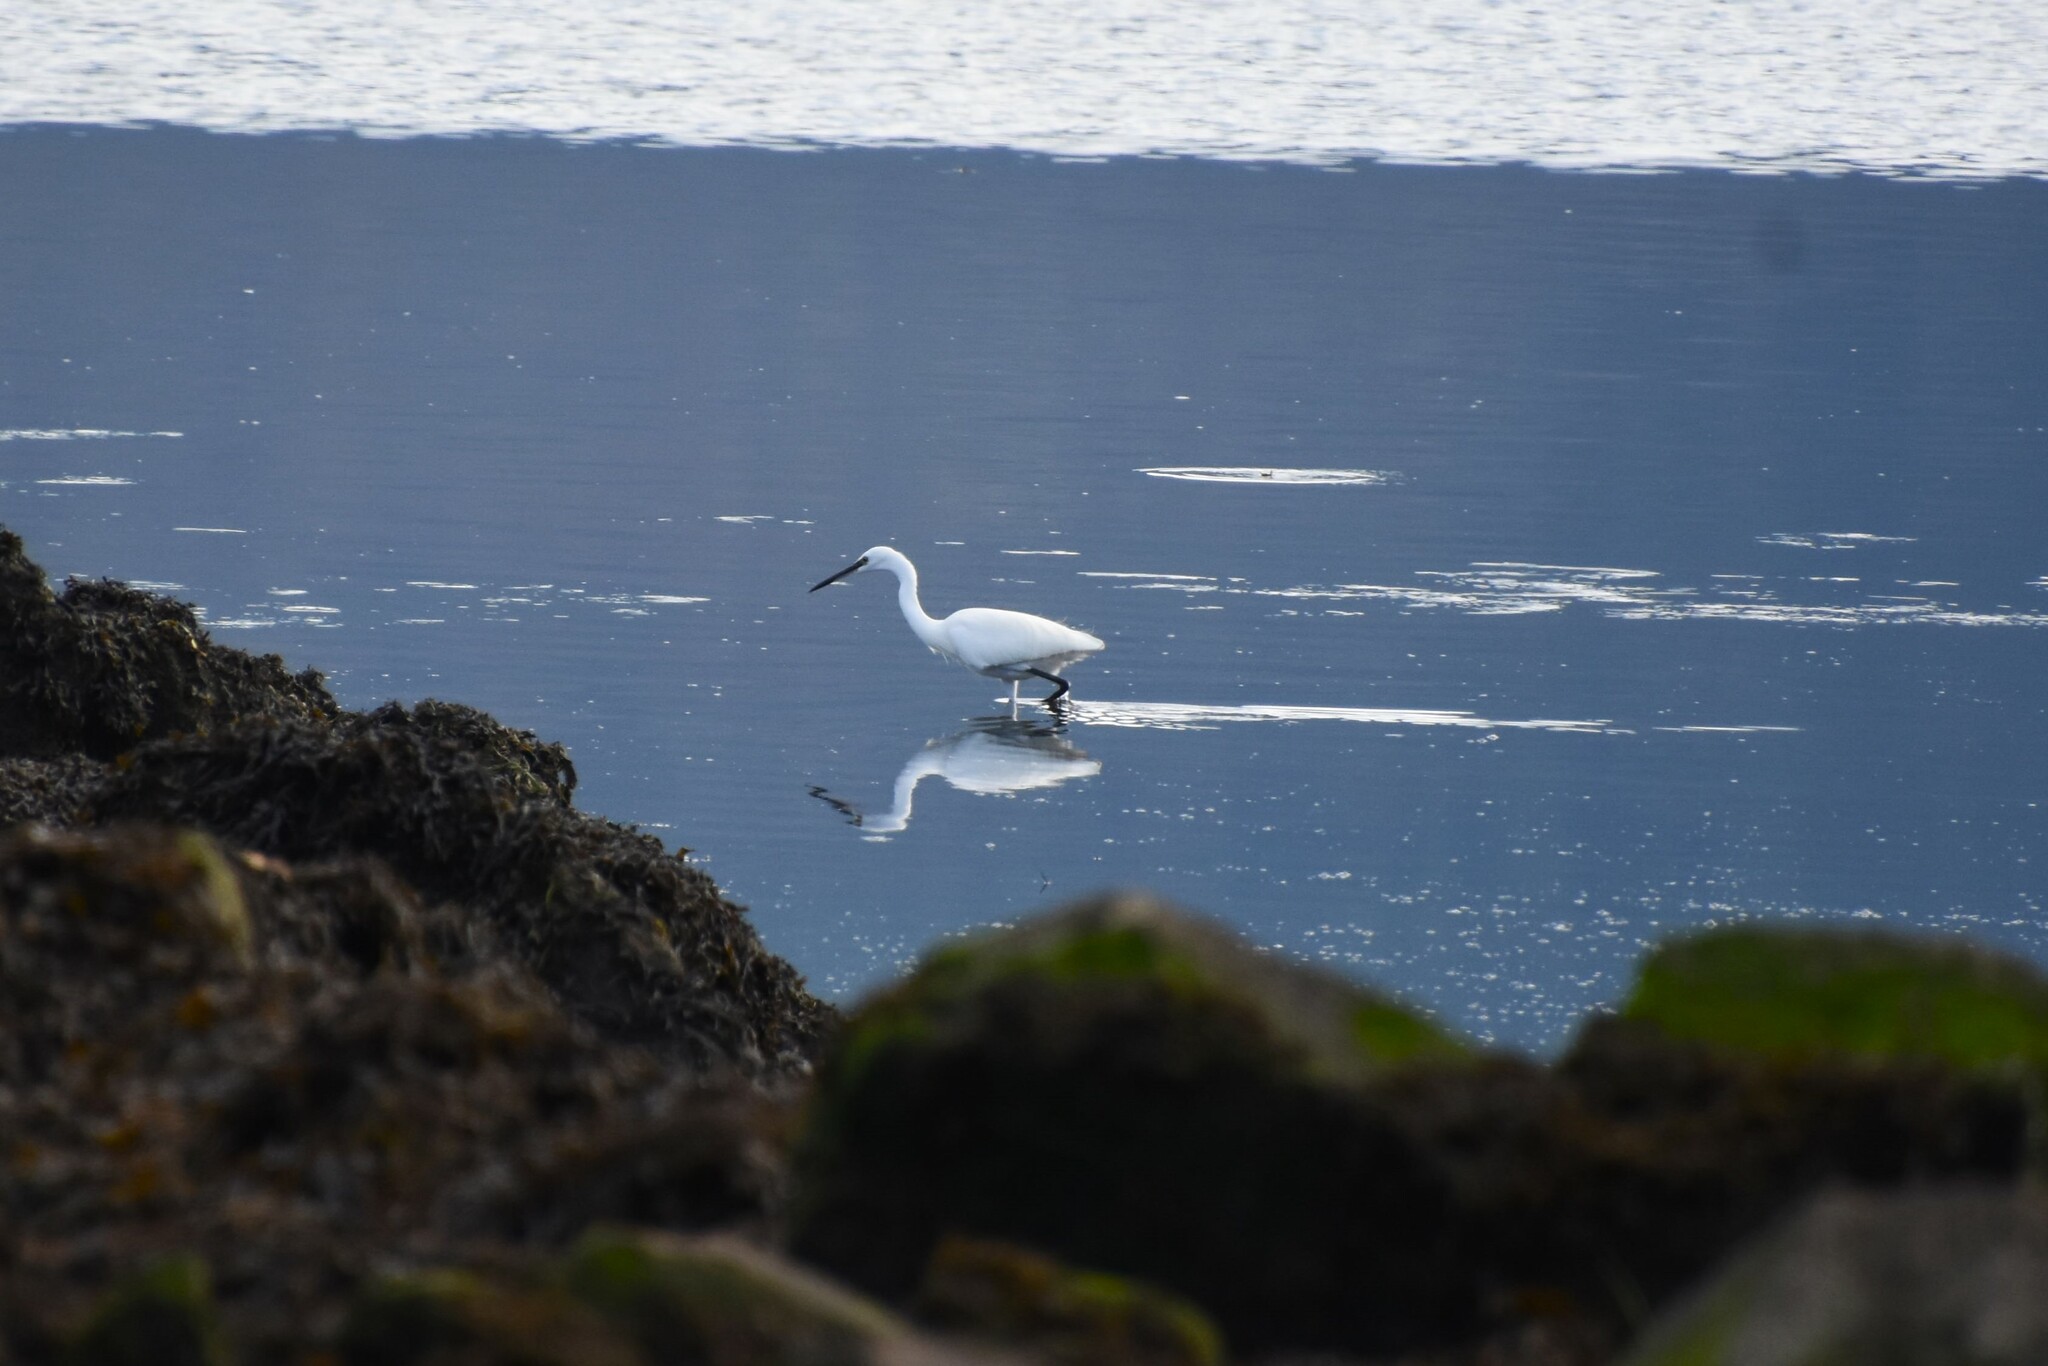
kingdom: Animalia
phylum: Chordata
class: Aves
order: Pelecaniformes
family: Ardeidae
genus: Egretta
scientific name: Egretta garzetta
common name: Little egret
